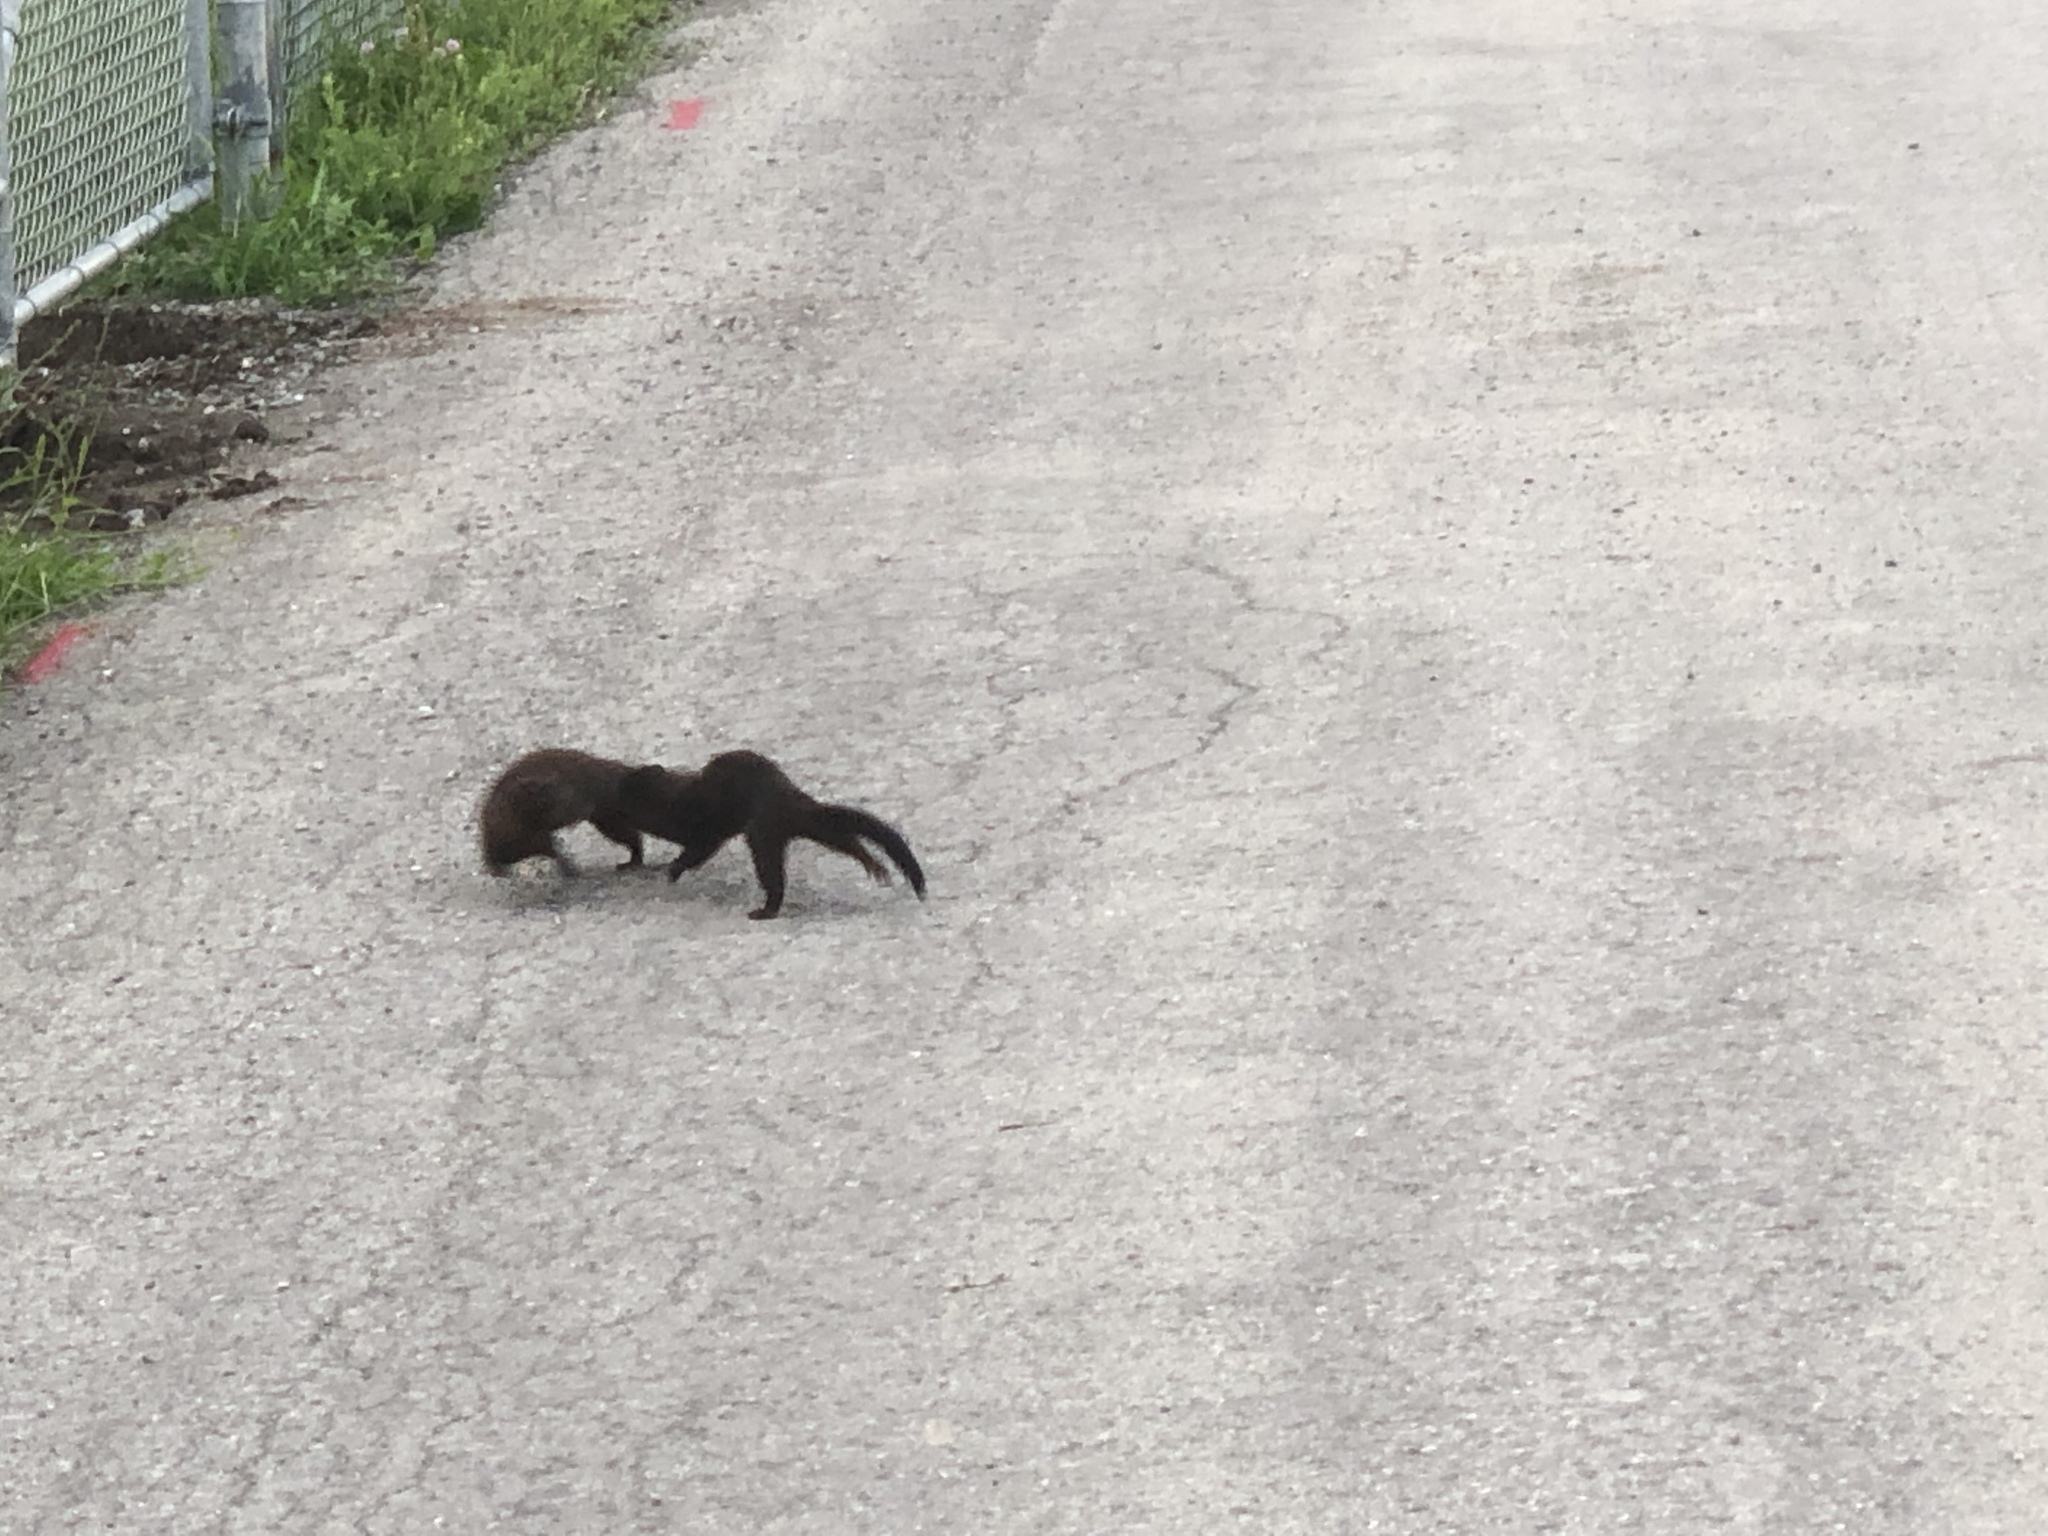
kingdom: Animalia
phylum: Chordata
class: Mammalia
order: Carnivora
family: Mustelidae
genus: Mustela
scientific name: Mustela
